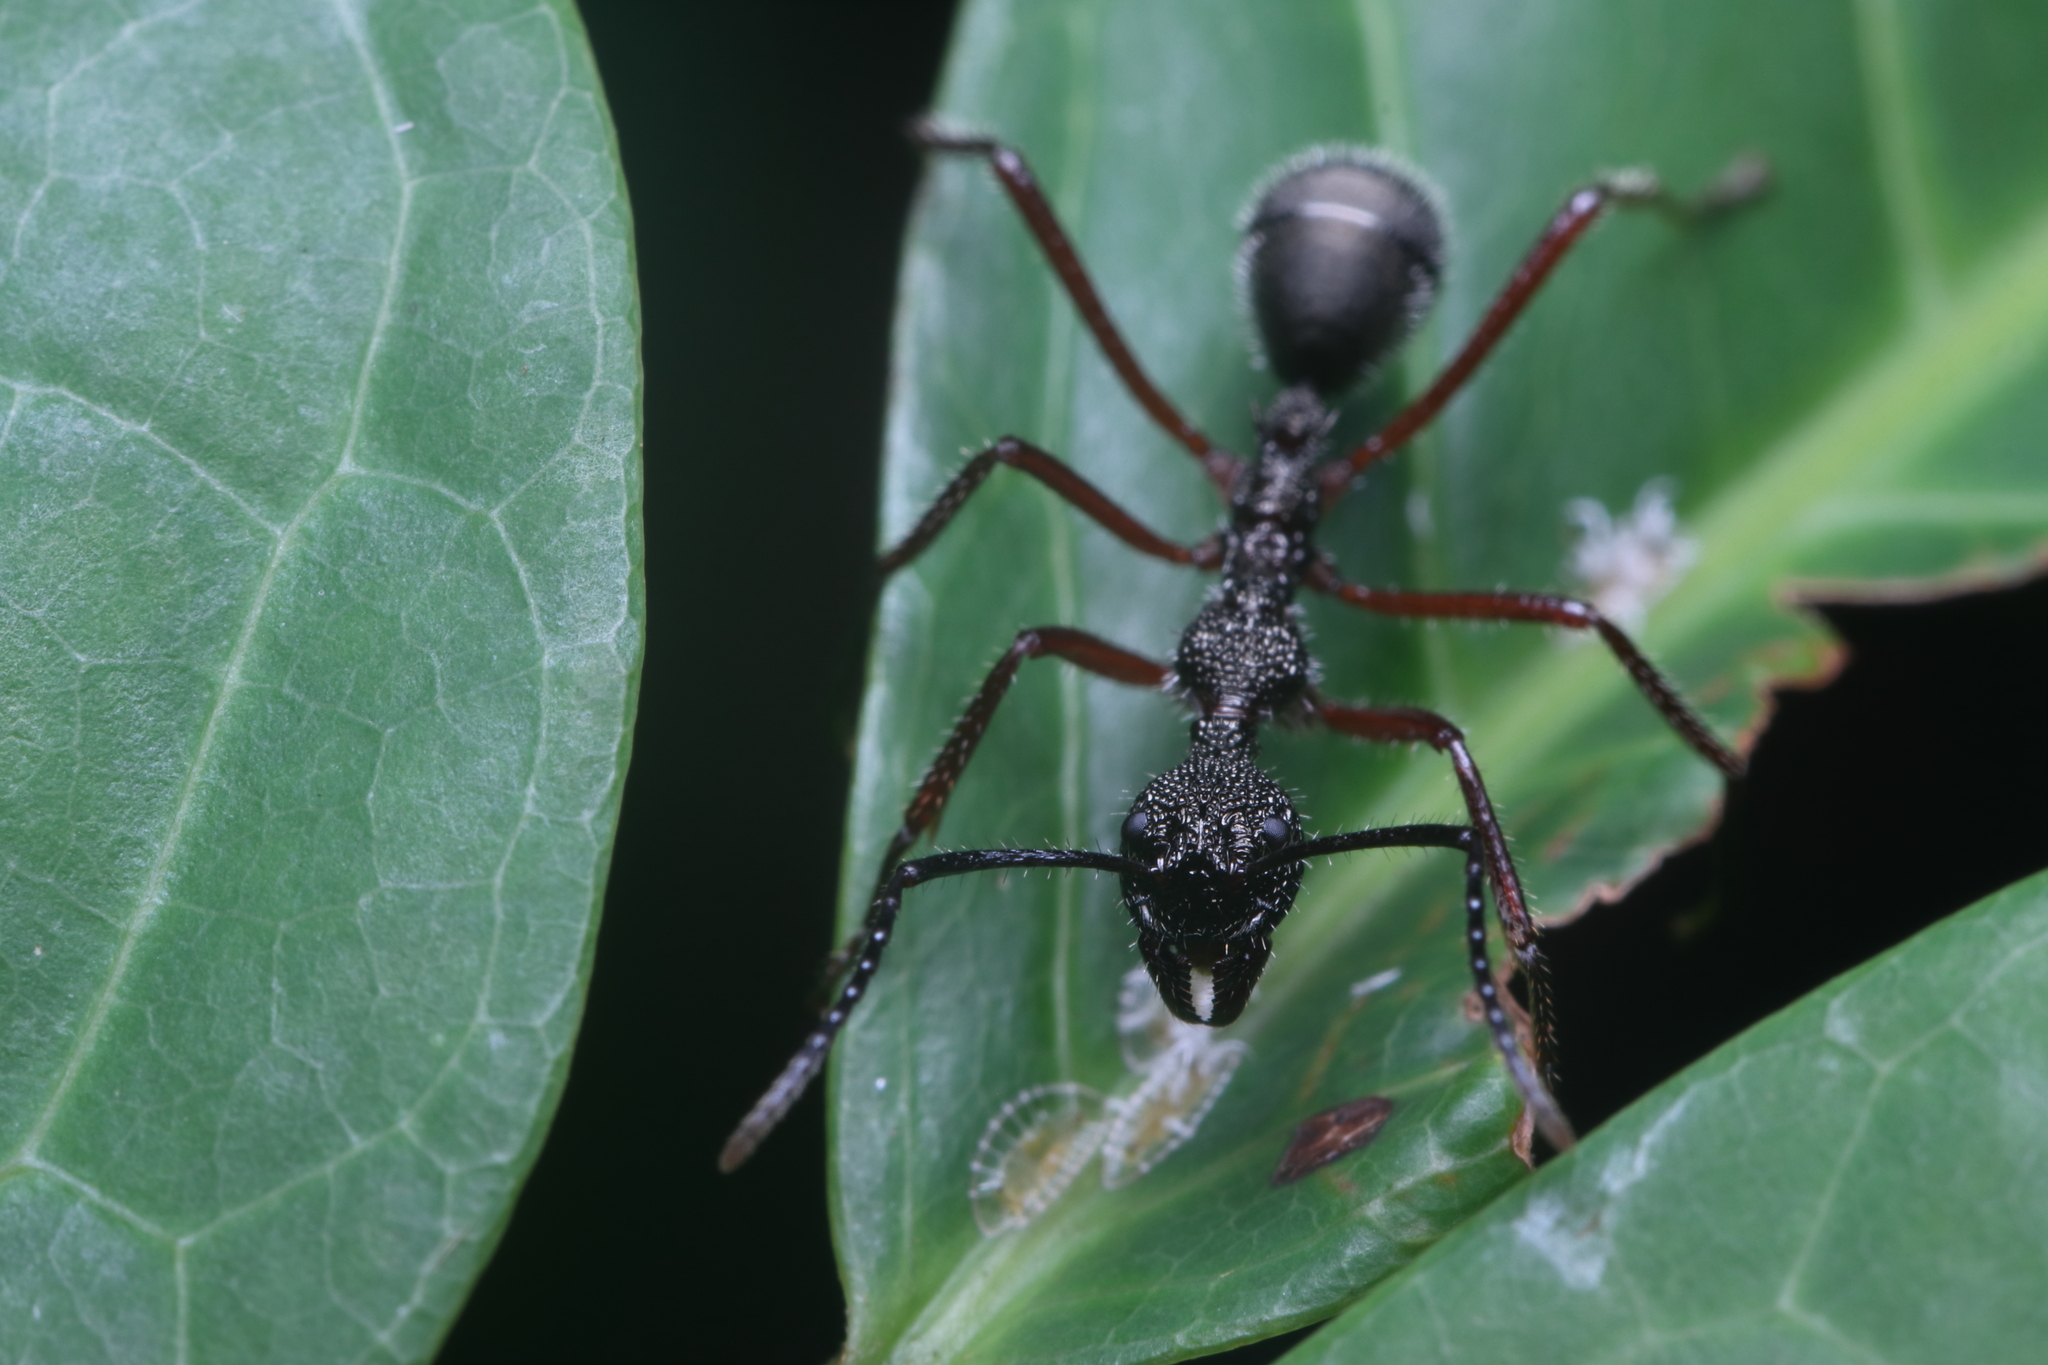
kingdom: Animalia
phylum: Arthropoda
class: Insecta
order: Hymenoptera
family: Formicidae
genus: Dolichoderus
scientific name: Dolichoderus attelaboides
